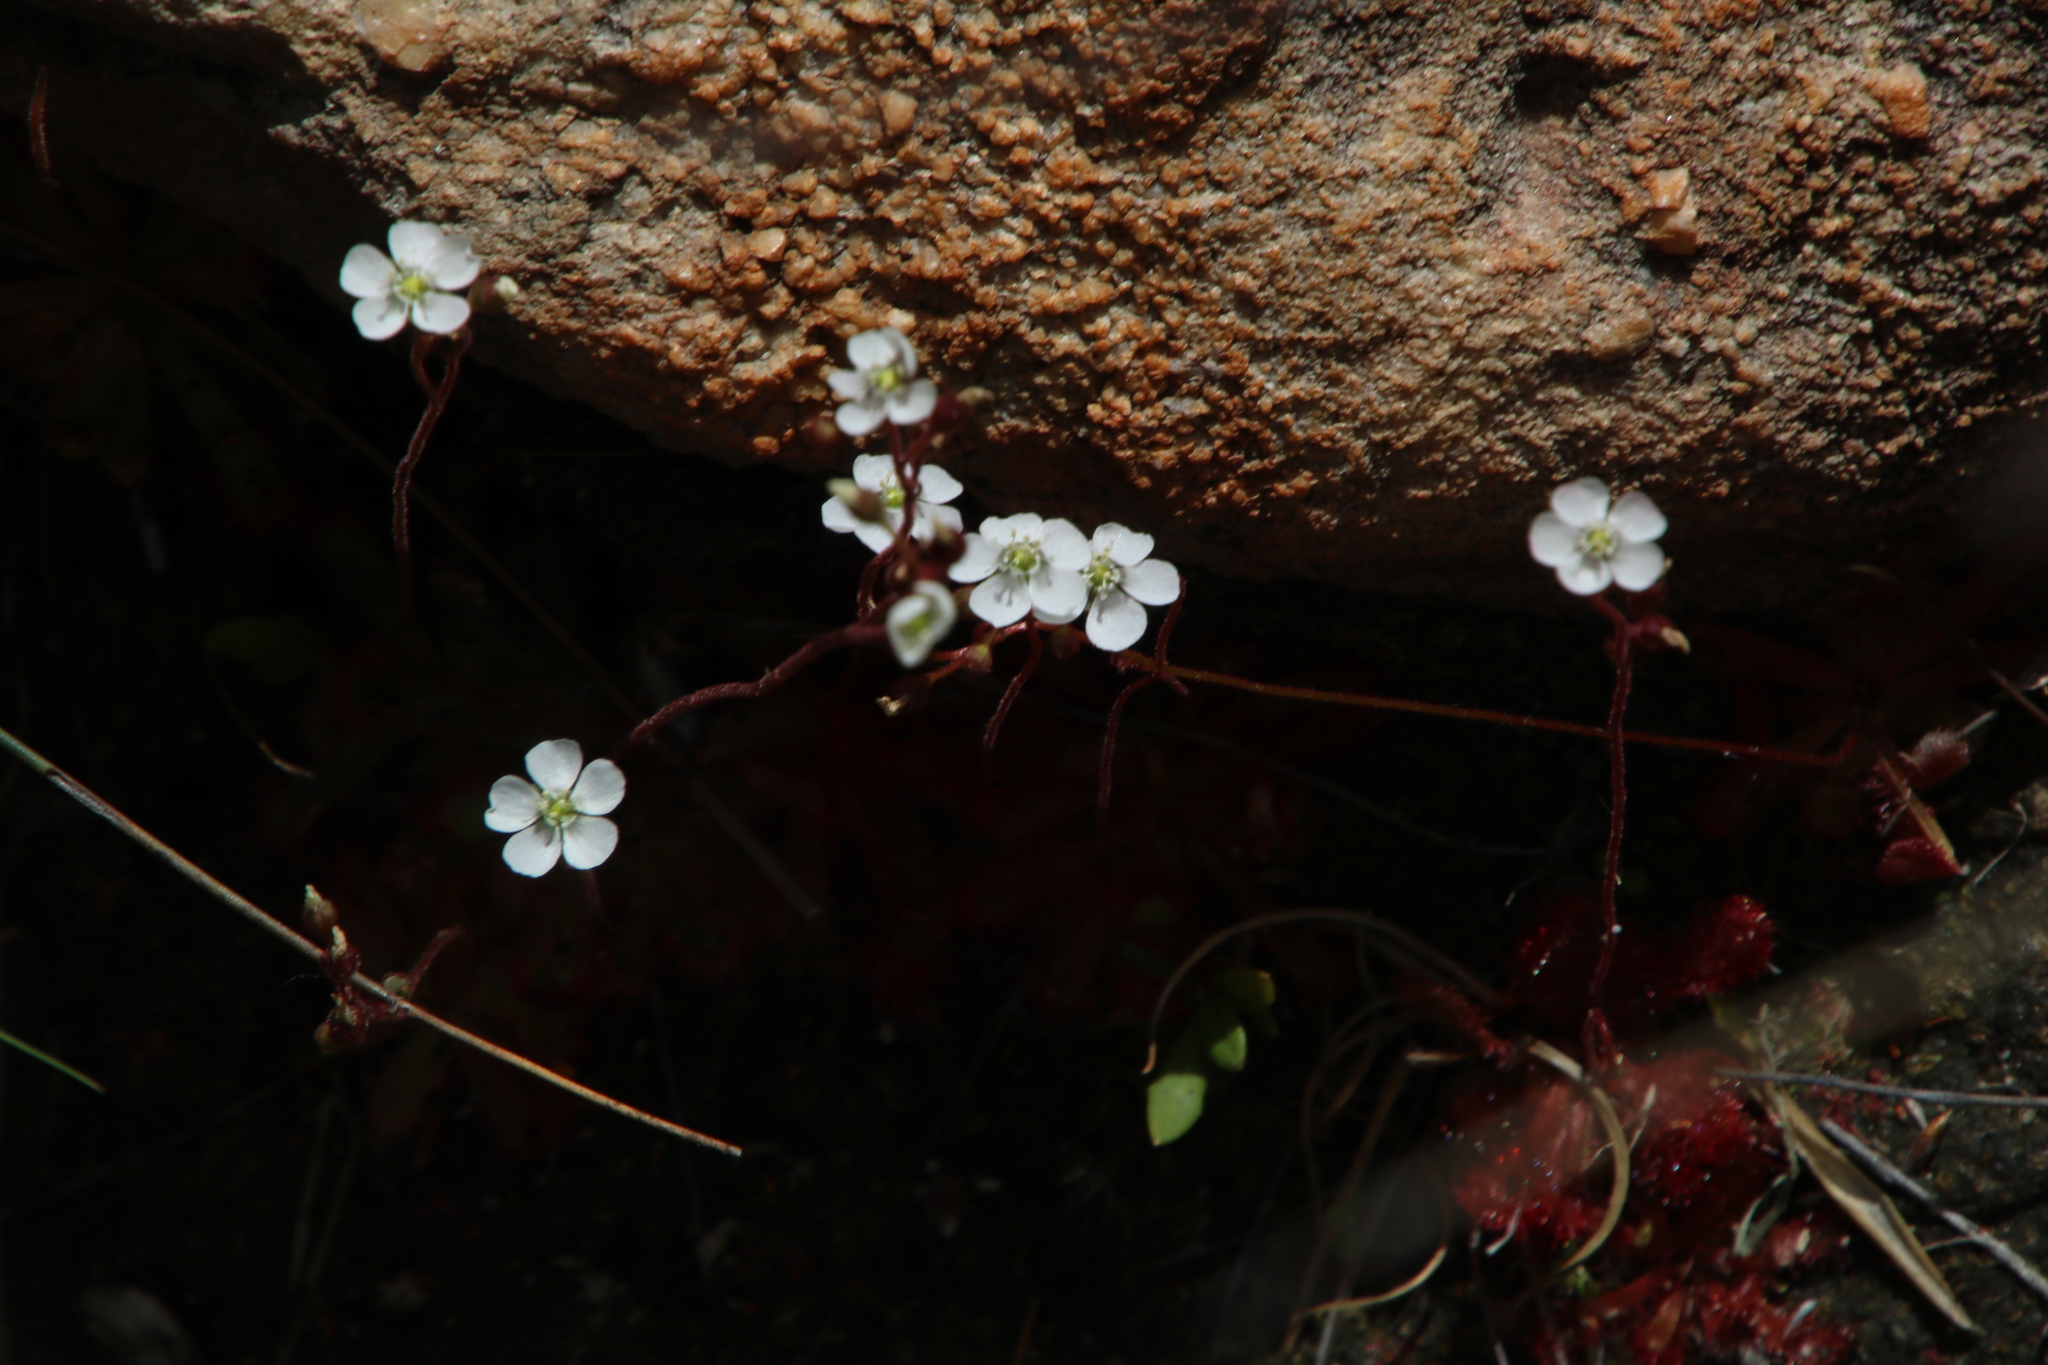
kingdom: Plantae
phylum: Tracheophyta
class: Magnoliopsida
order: Caryophyllales
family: Droseraceae
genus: Drosera
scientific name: Drosera trinervia
